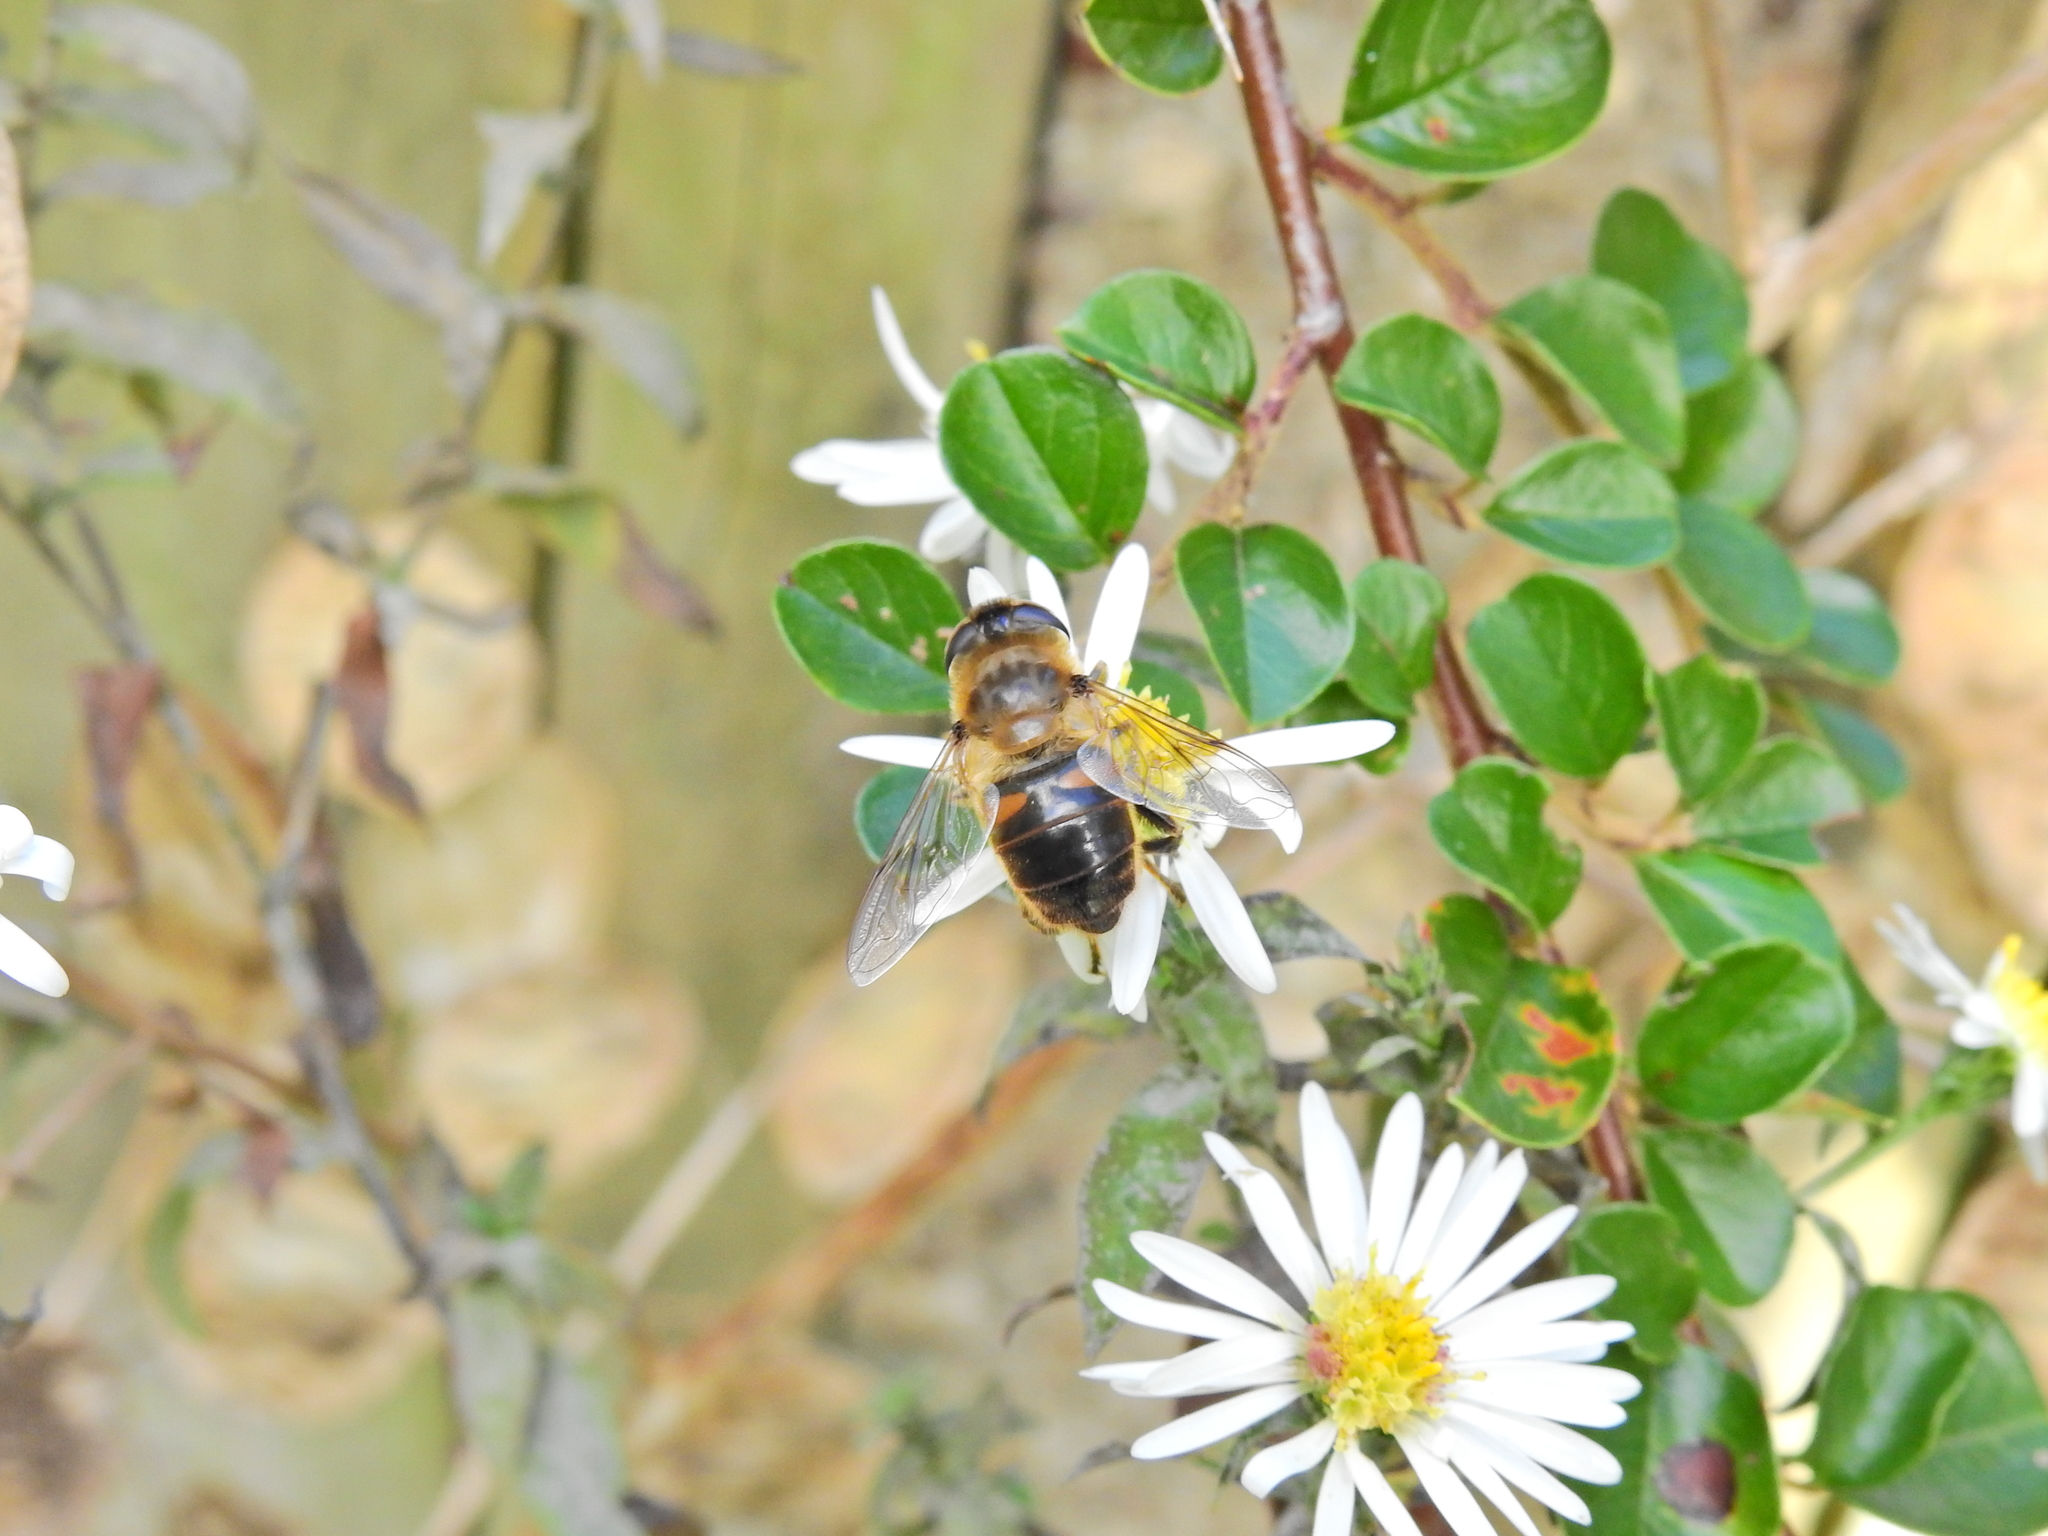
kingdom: Animalia
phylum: Arthropoda
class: Insecta
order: Diptera
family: Syrphidae
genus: Eristalis
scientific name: Eristalis tenax
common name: Drone fly
